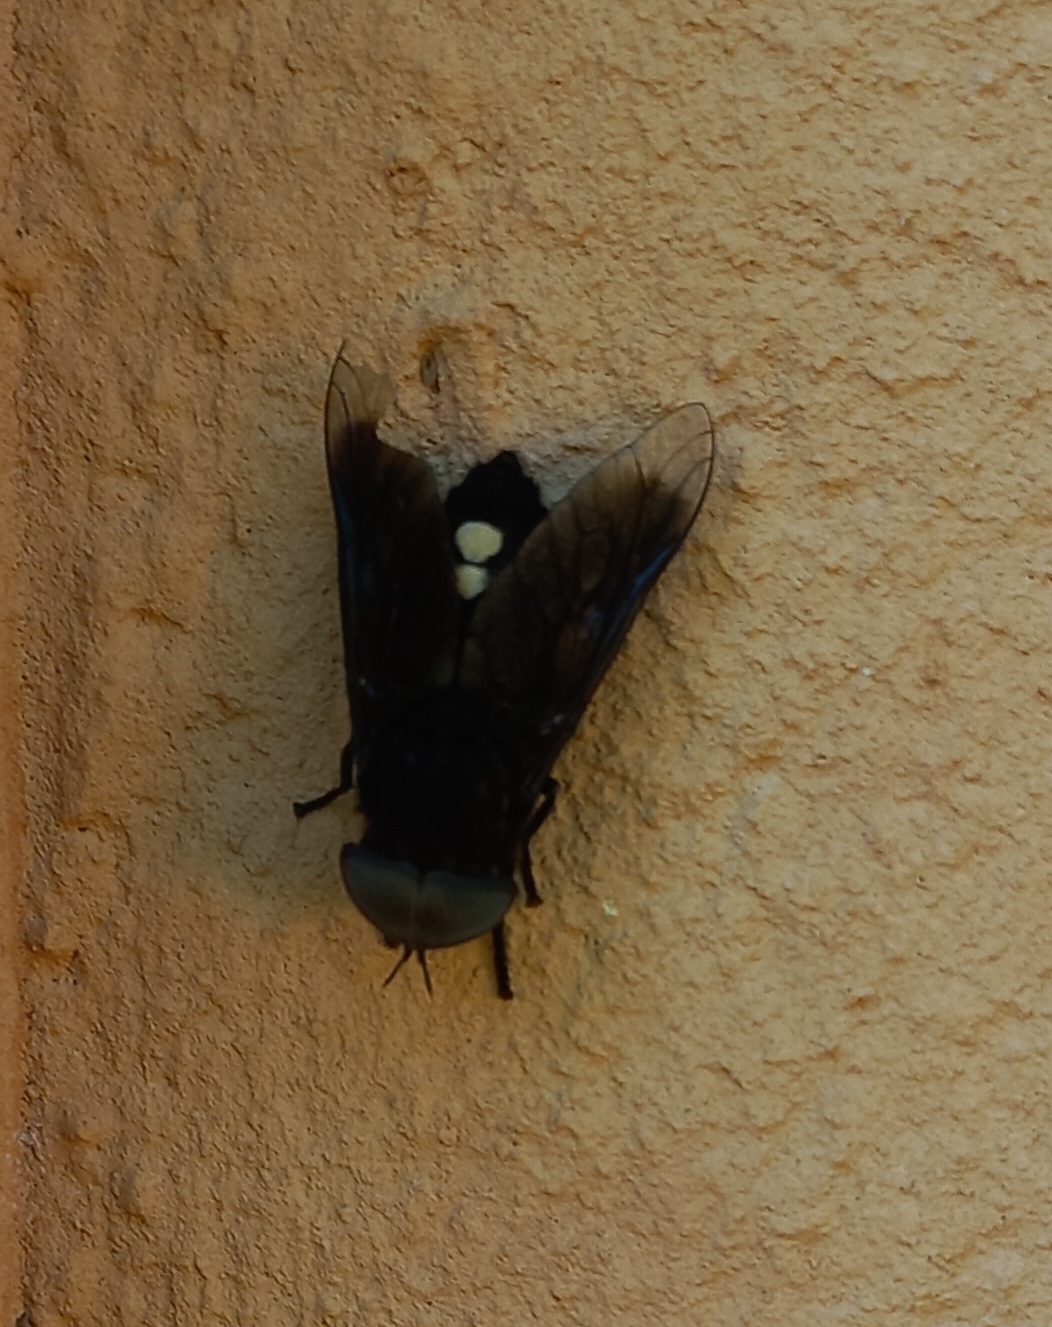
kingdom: Animalia
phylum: Arthropoda
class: Insecta
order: Diptera
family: Tabanidae
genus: Tabanus
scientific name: Tabanus biguttatus
